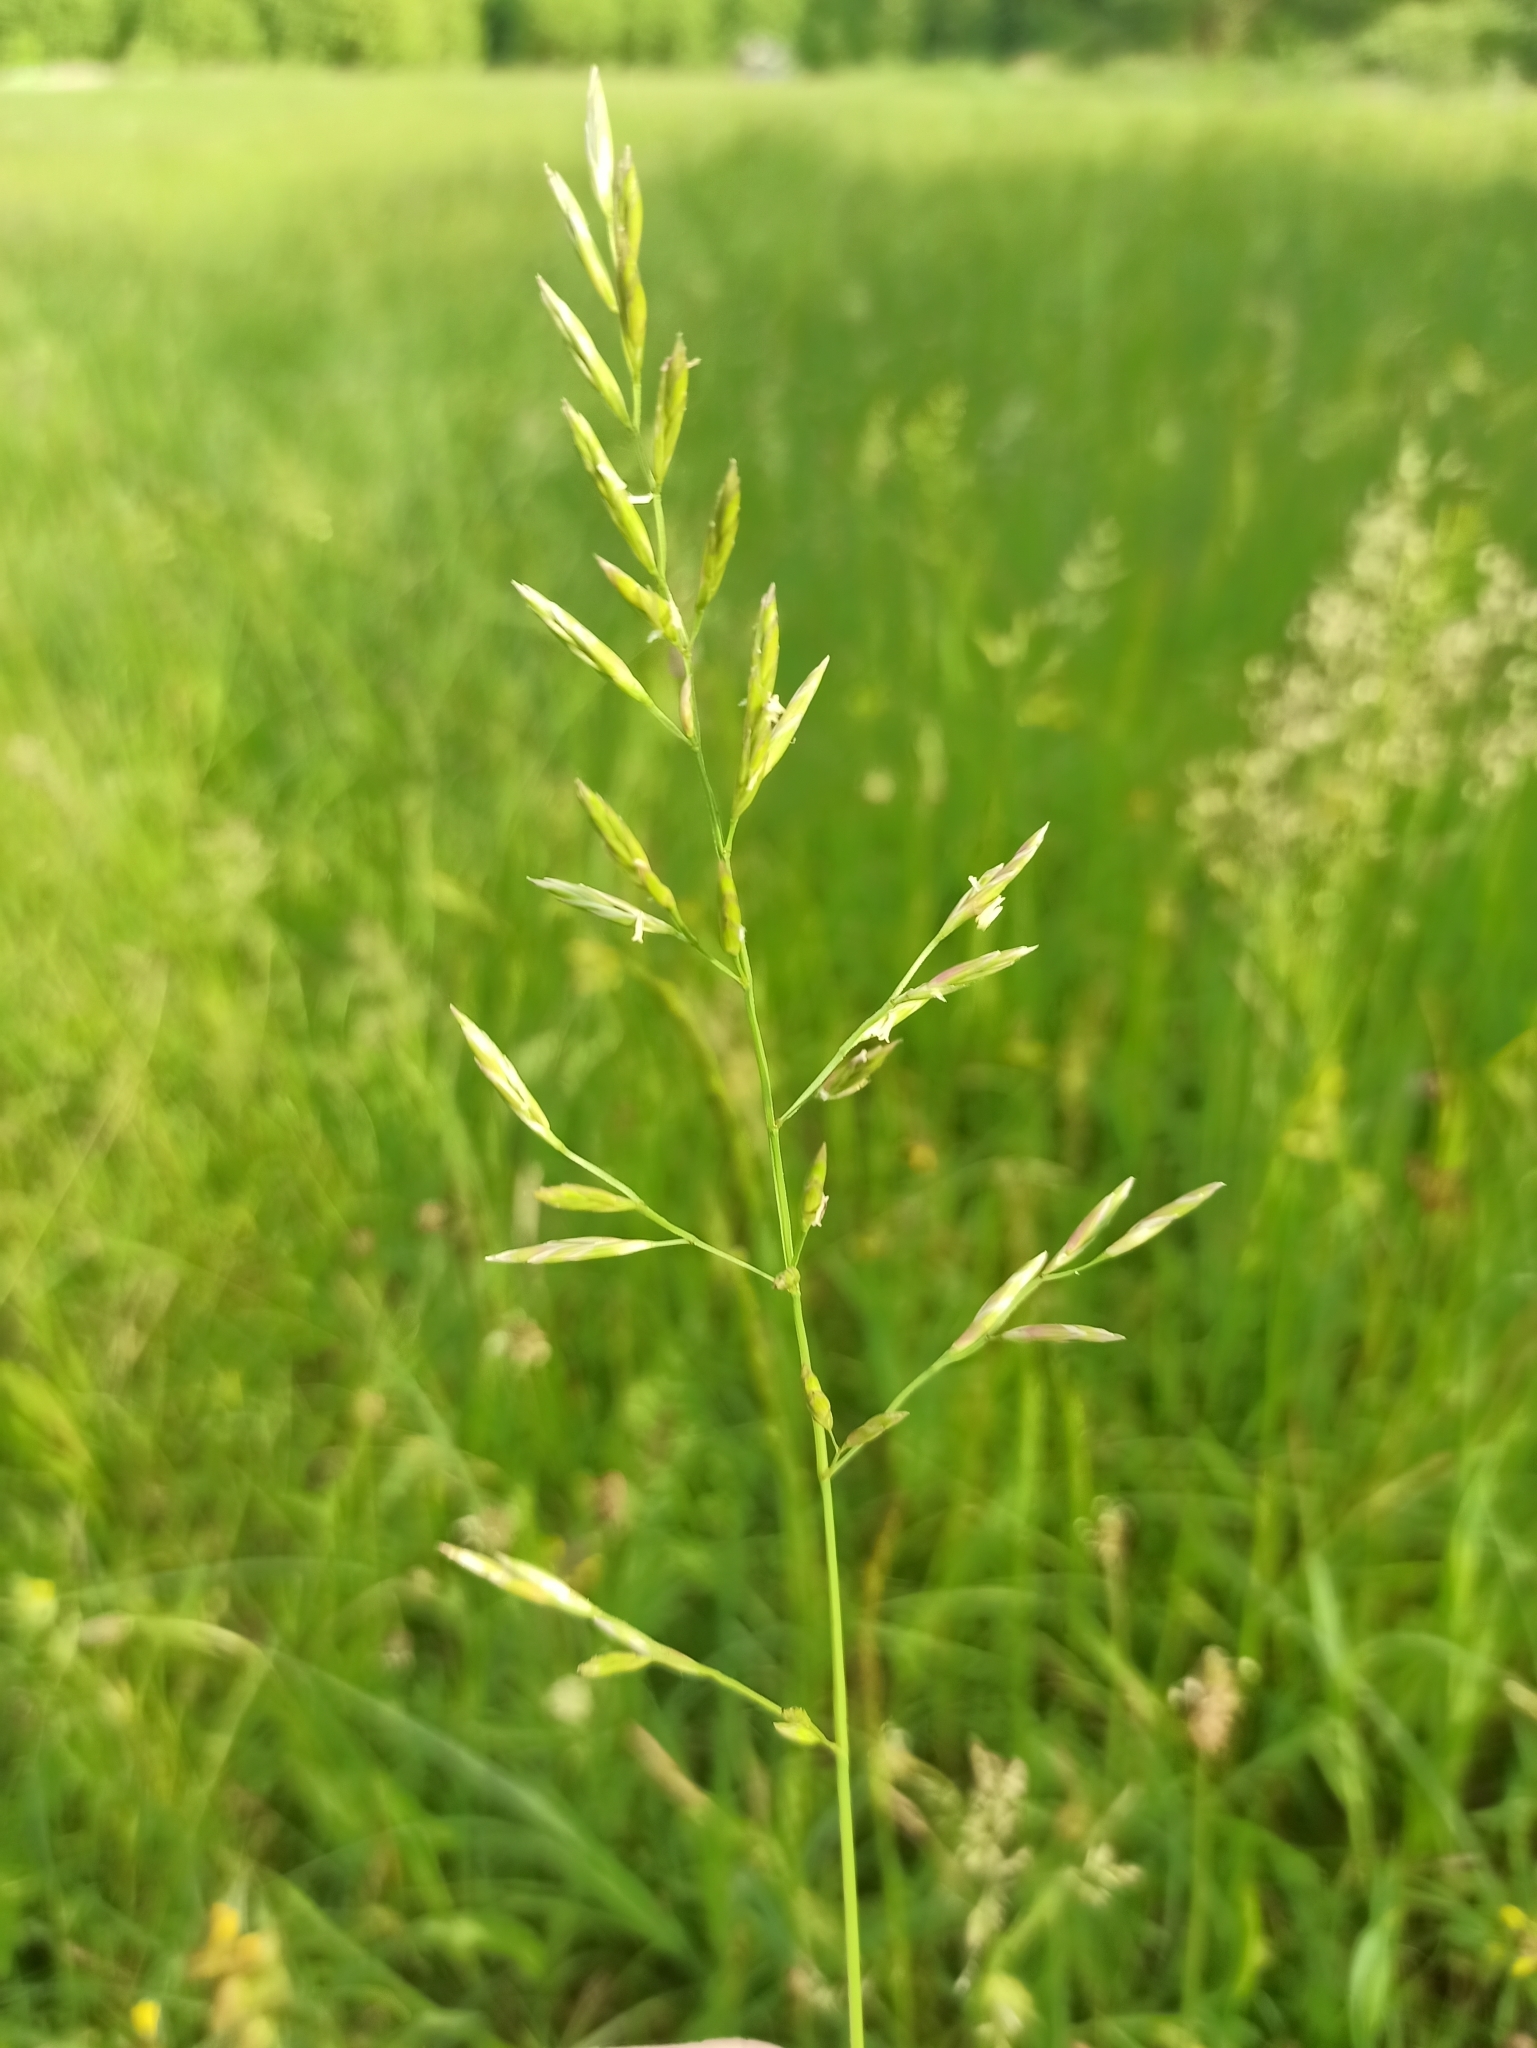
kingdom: Plantae
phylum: Tracheophyta
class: Liliopsida
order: Poales
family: Poaceae
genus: Lolium
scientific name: Lolium pratense
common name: Dover grass
